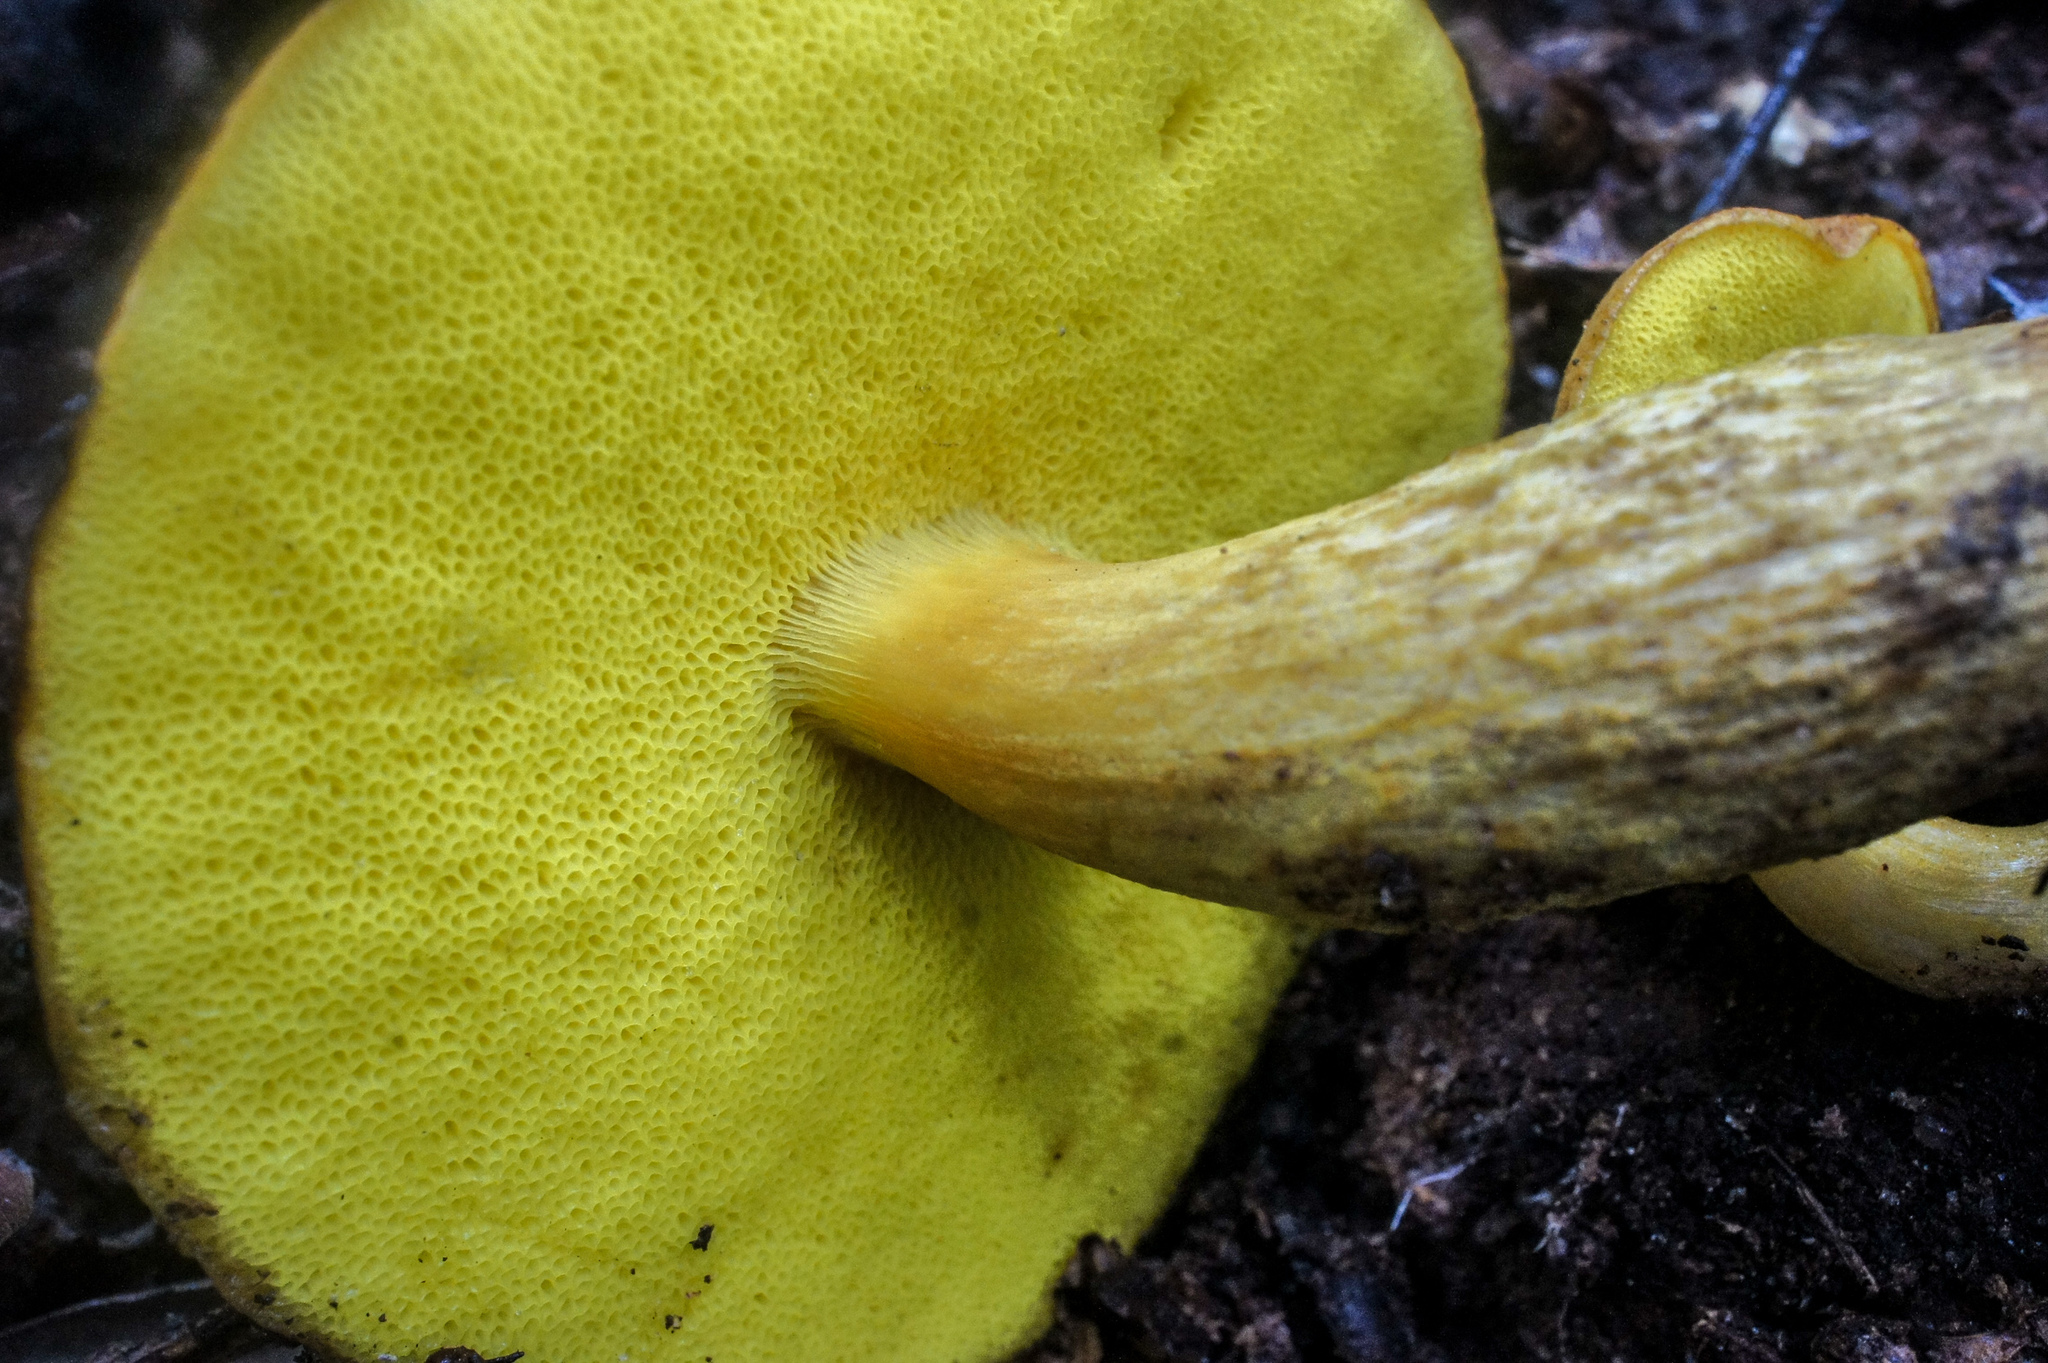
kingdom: Fungi
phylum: Basidiomycota
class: Agaricomycetes
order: Boletales
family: Boletaceae
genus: Aureoboletus
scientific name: Aureoboletus innixus
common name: Clustered brown bolete
